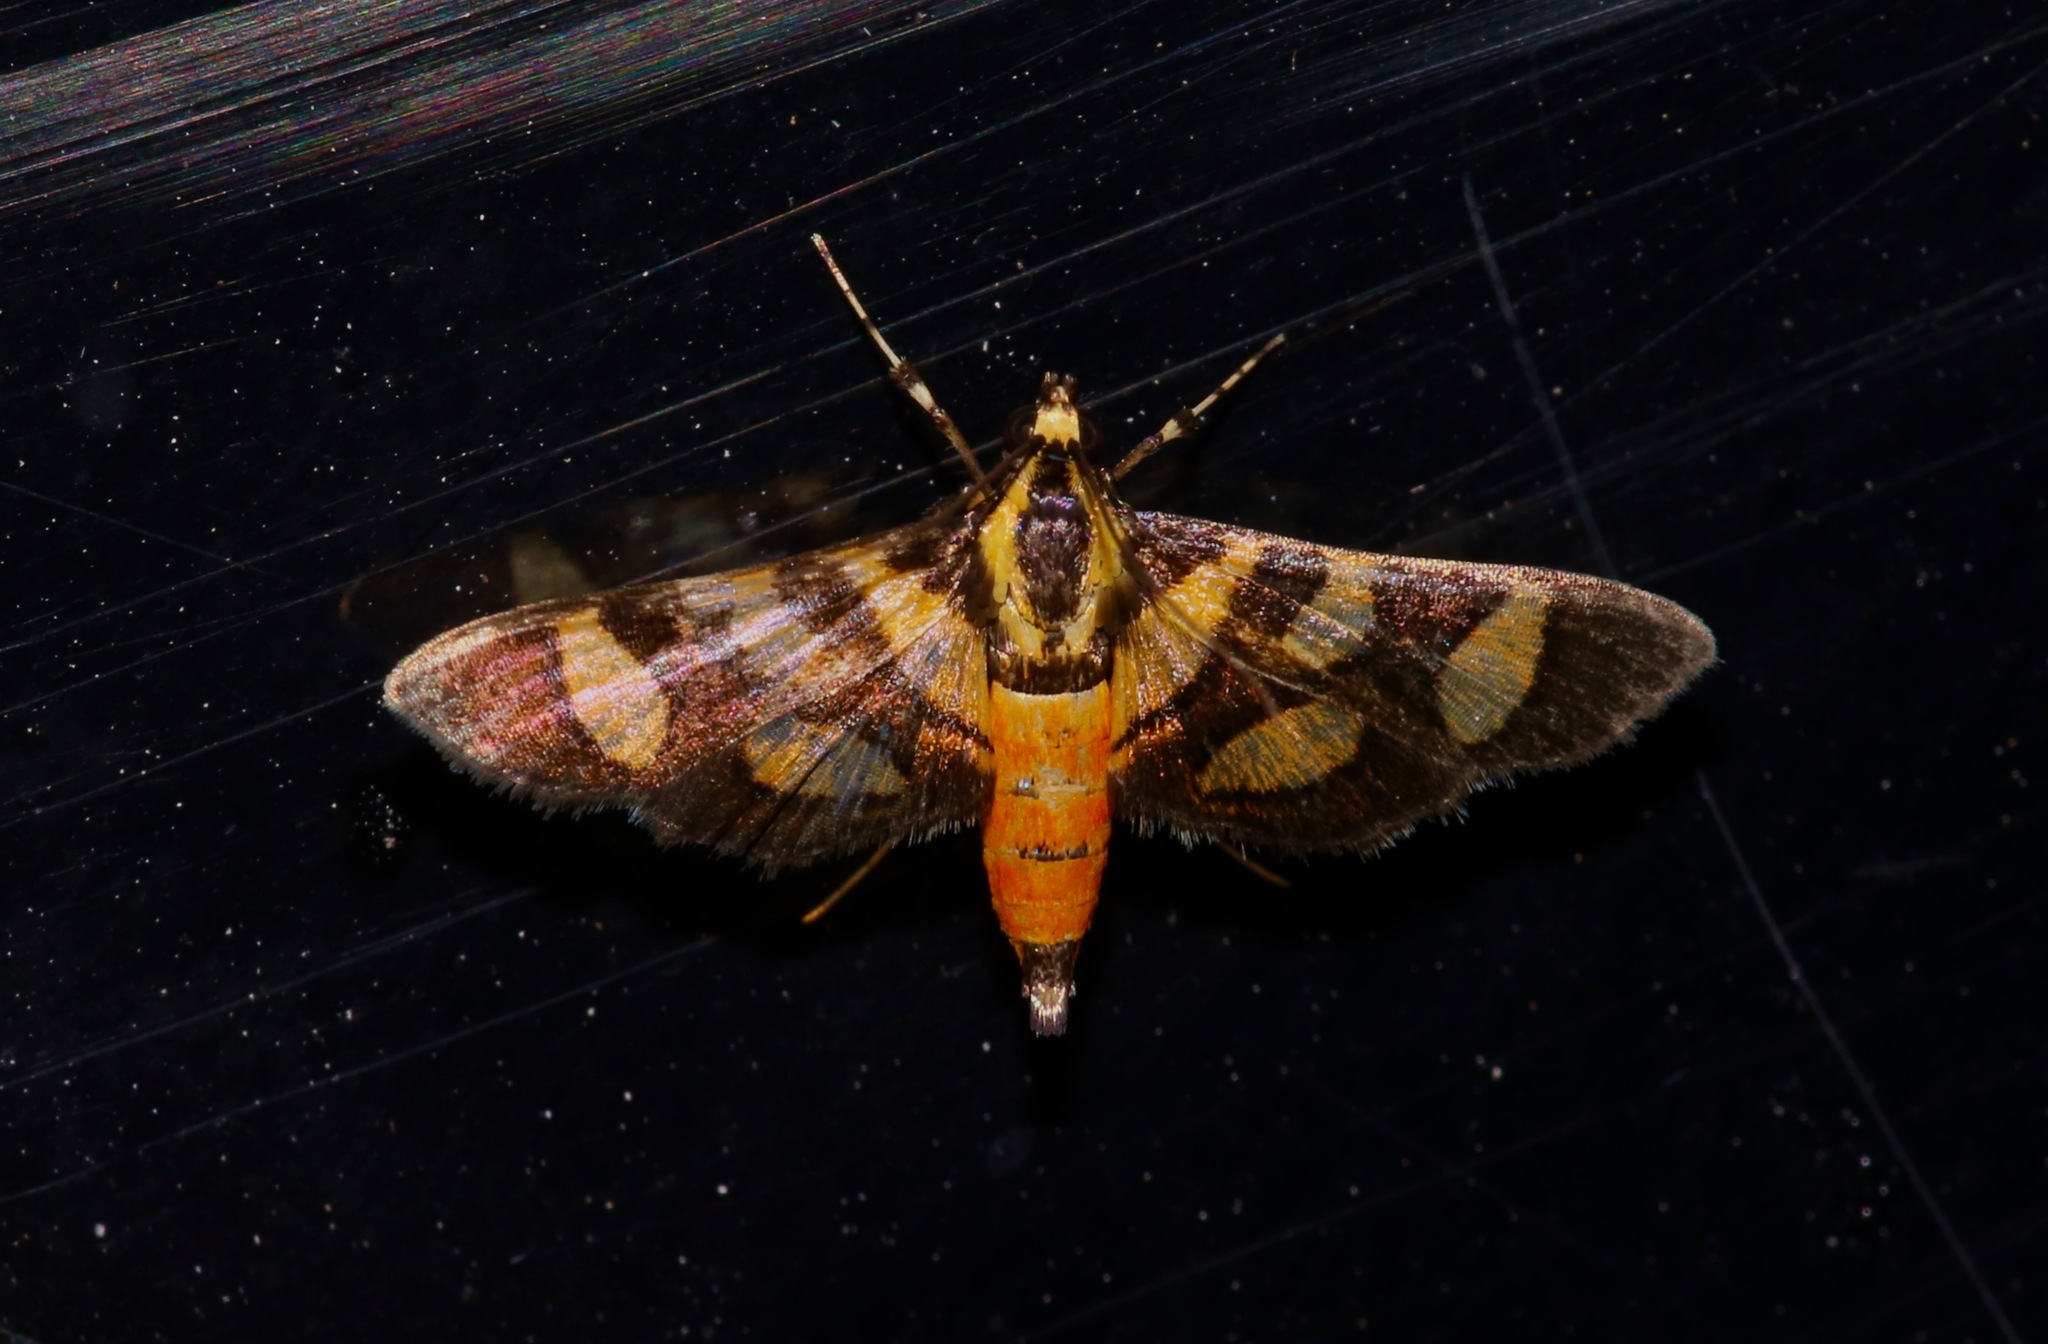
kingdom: Animalia
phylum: Arthropoda
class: Insecta
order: Lepidoptera
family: Crambidae
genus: Syngamia
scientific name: Syngamia florella
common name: Orange-spotted flower moth
